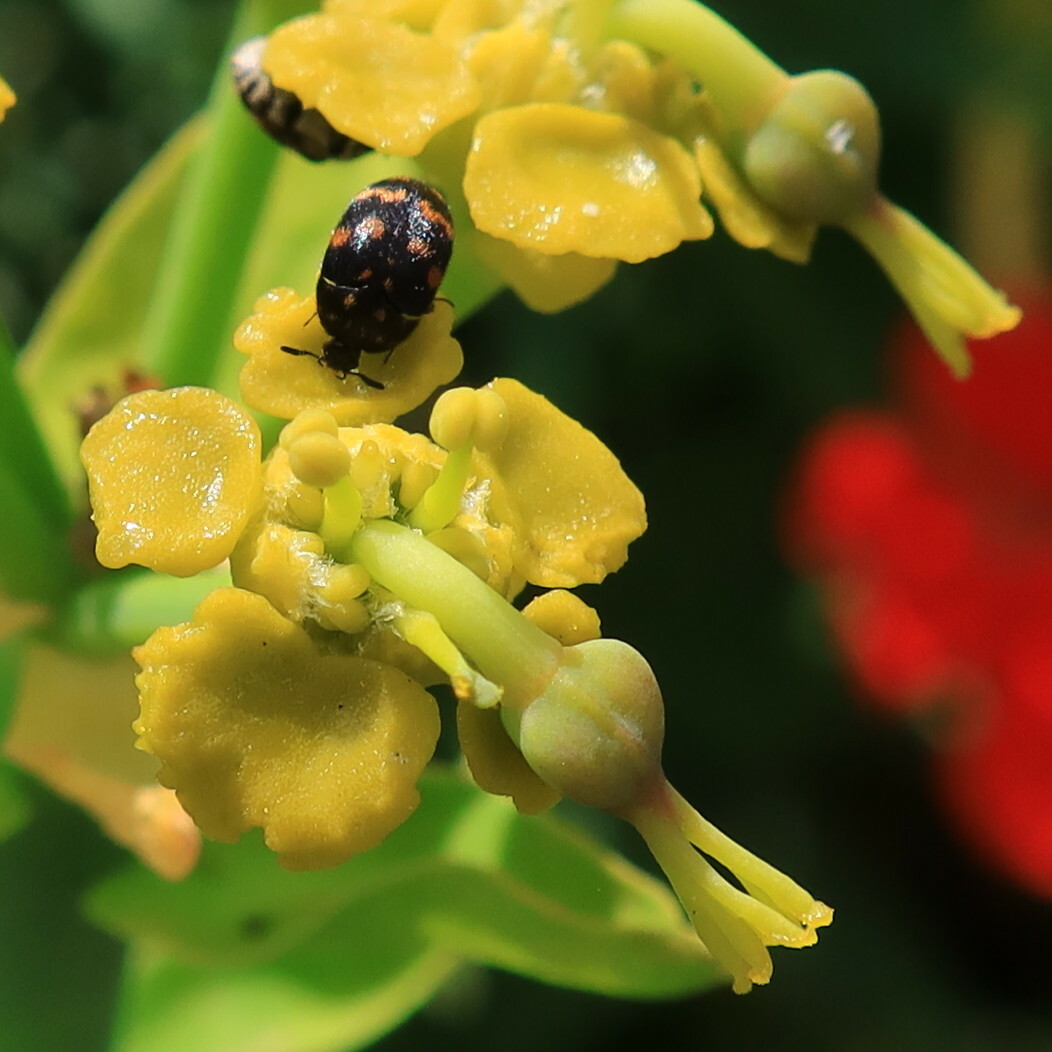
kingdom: Animalia
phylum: Arthropoda
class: Insecta
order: Coleoptera
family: Dermestidae
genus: Attagenus
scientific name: Attagenus
